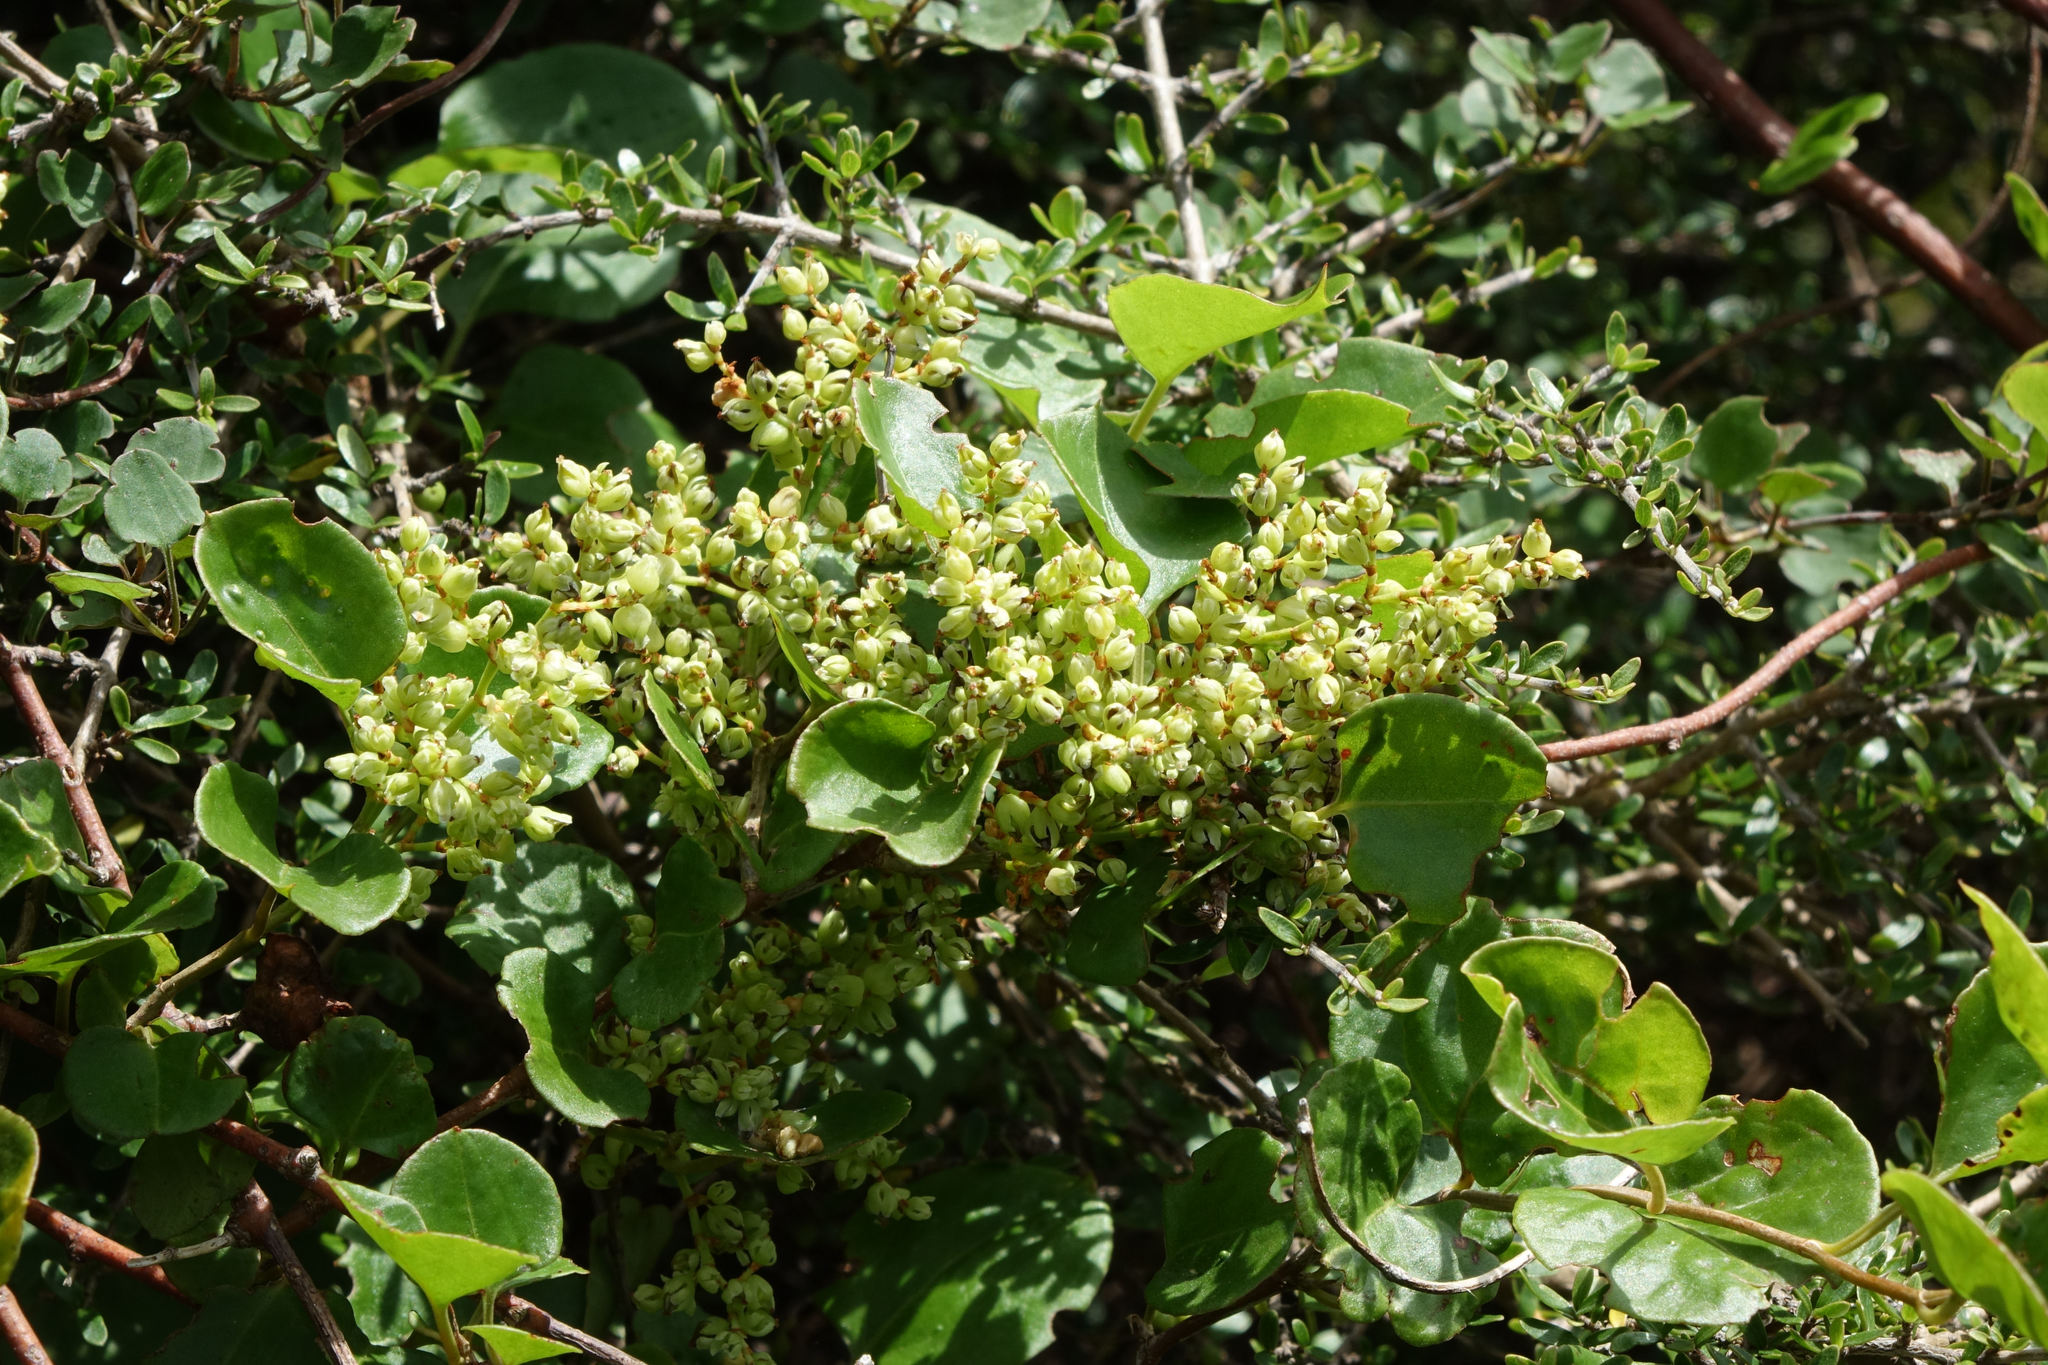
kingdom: Plantae
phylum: Tracheophyta
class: Magnoliopsida
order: Caryophyllales
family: Polygonaceae
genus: Muehlenbeckia
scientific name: Muehlenbeckia australis
